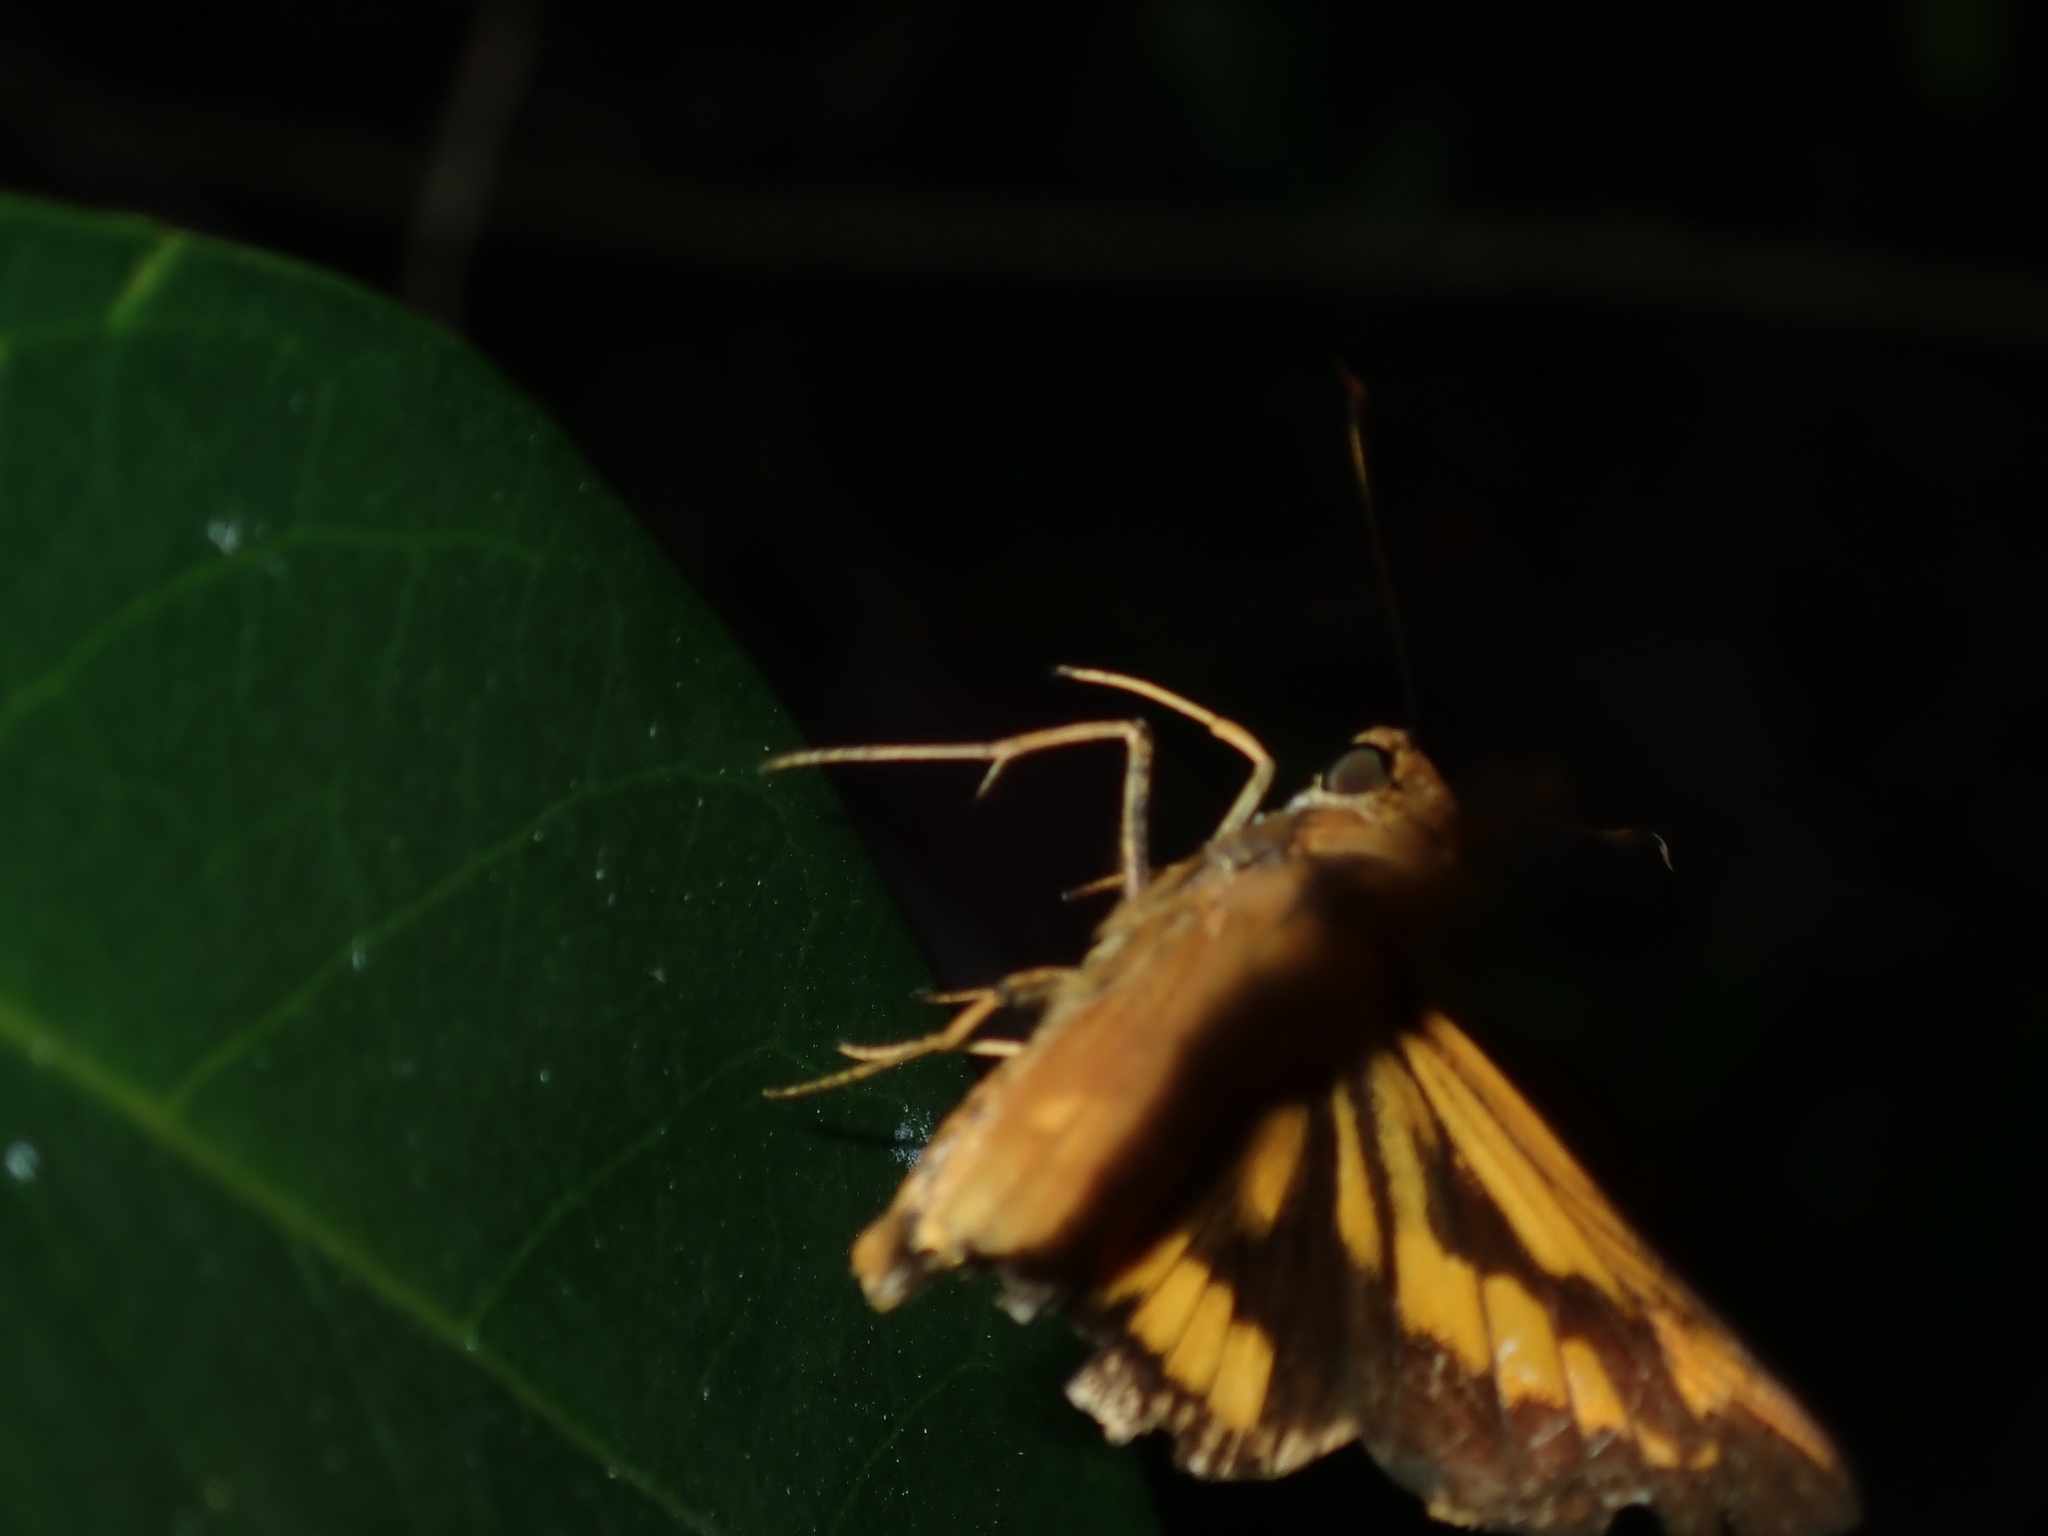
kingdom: Animalia
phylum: Arthropoda
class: Insecta
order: Lepidoptera
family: Hesperiidae
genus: Cephrenes
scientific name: Cephrenes augiades
